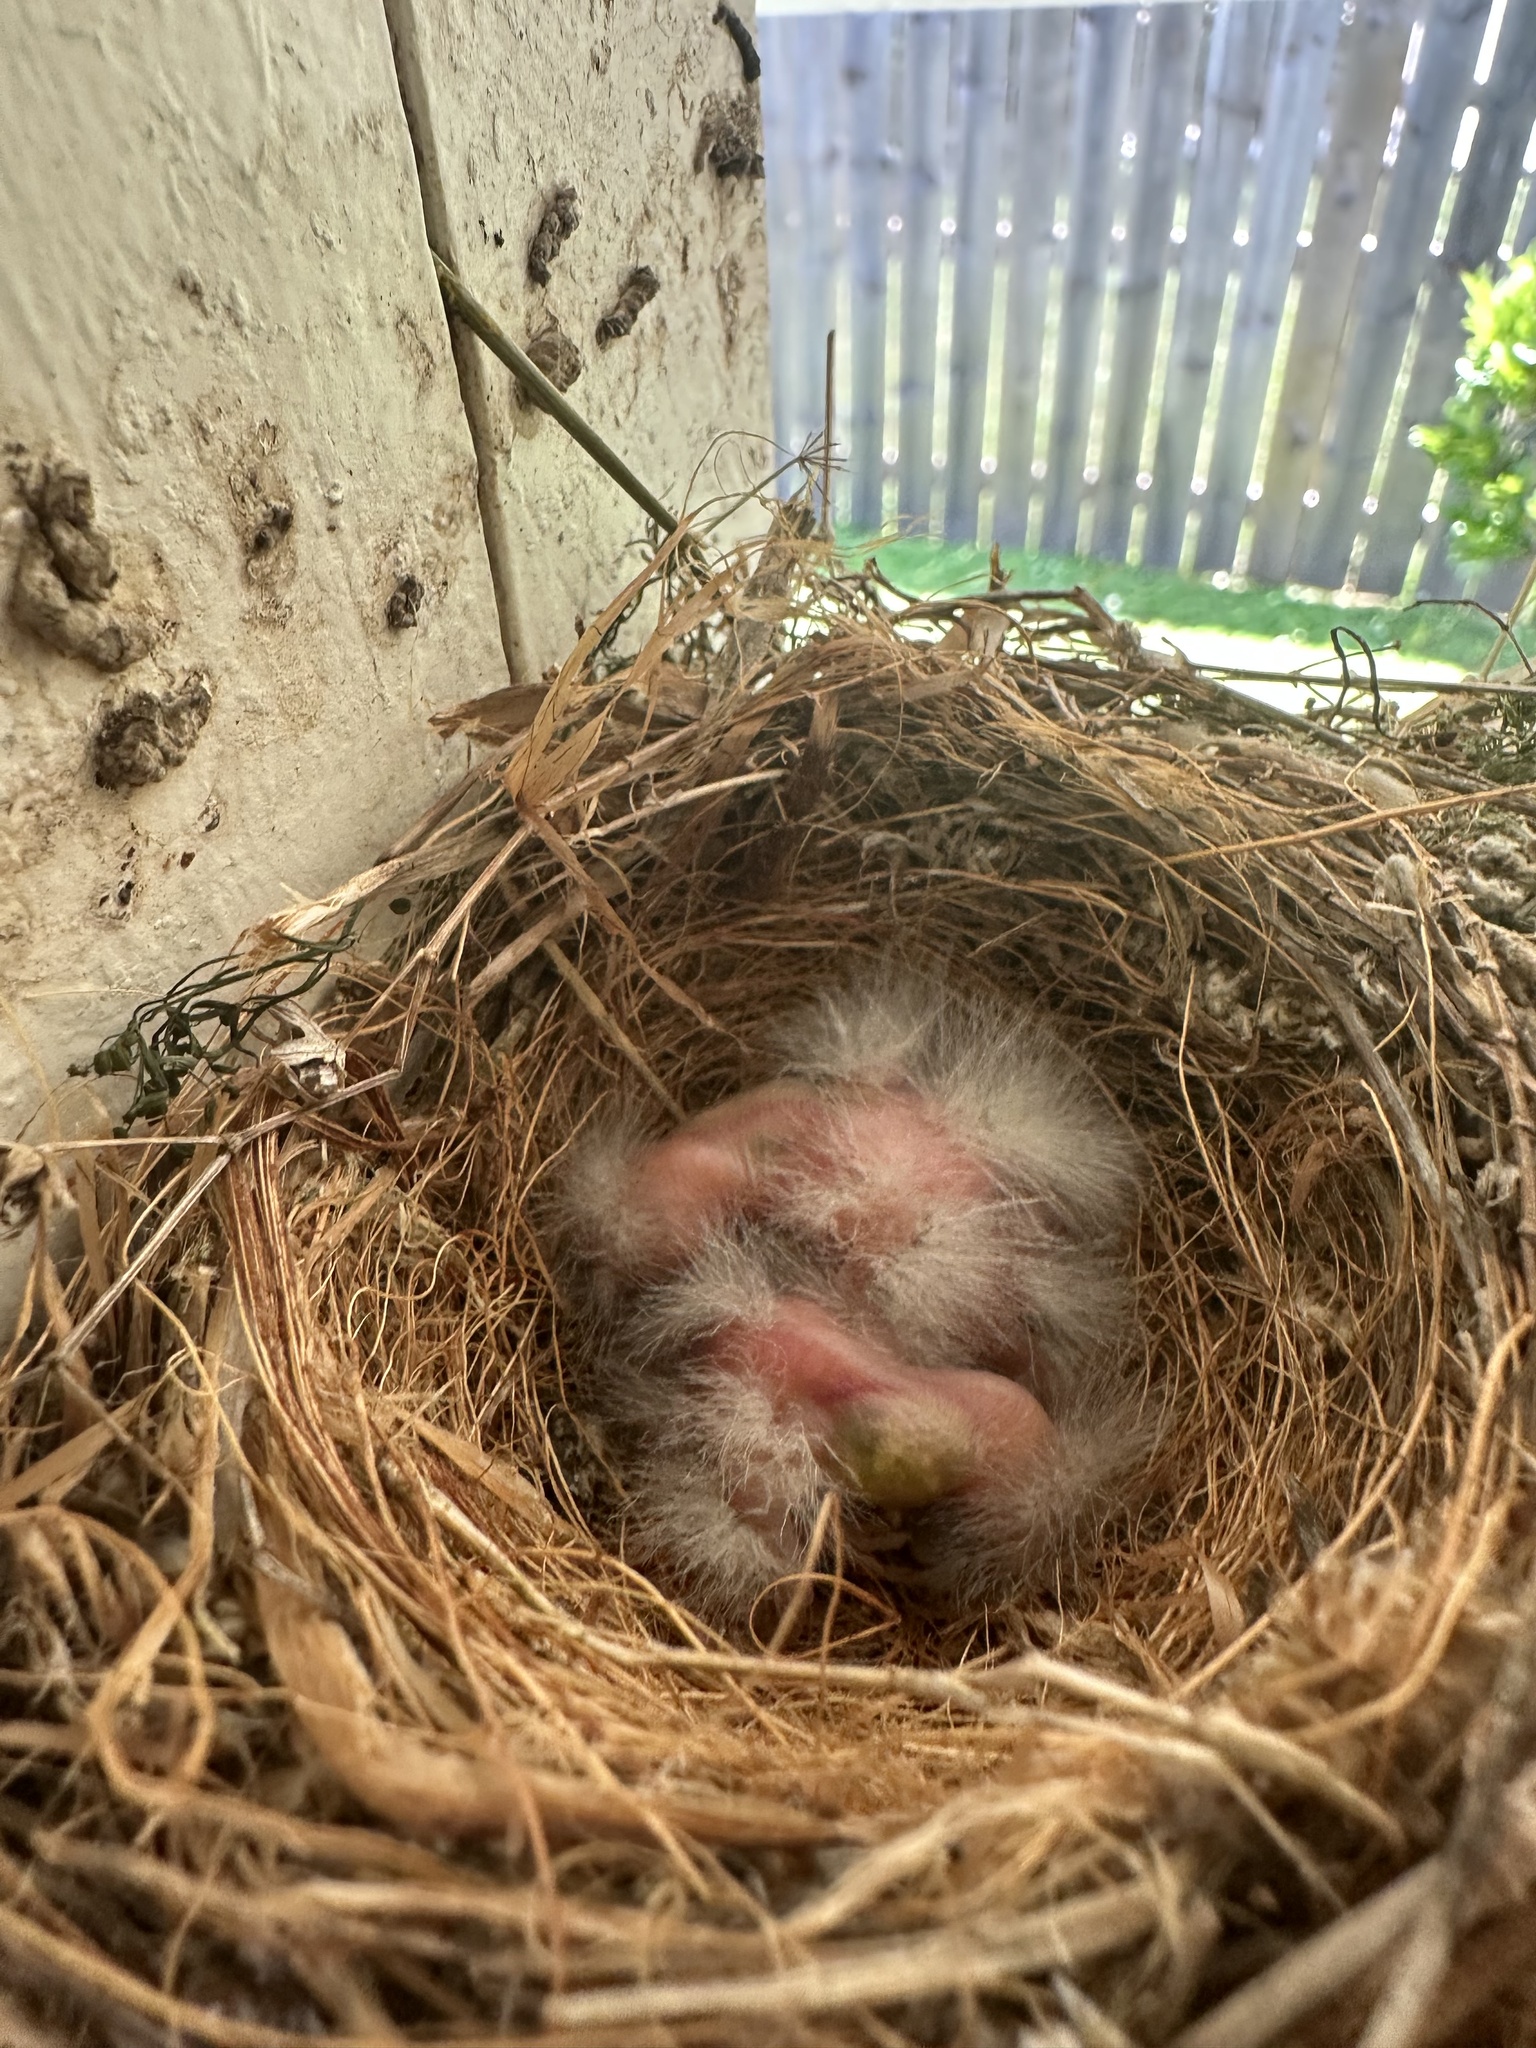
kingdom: Animalia
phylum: Chordata
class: Aves
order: Passeriformes
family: Fringillidae
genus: Haemorhous
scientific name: Haemorhous mexicanus
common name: House finch
